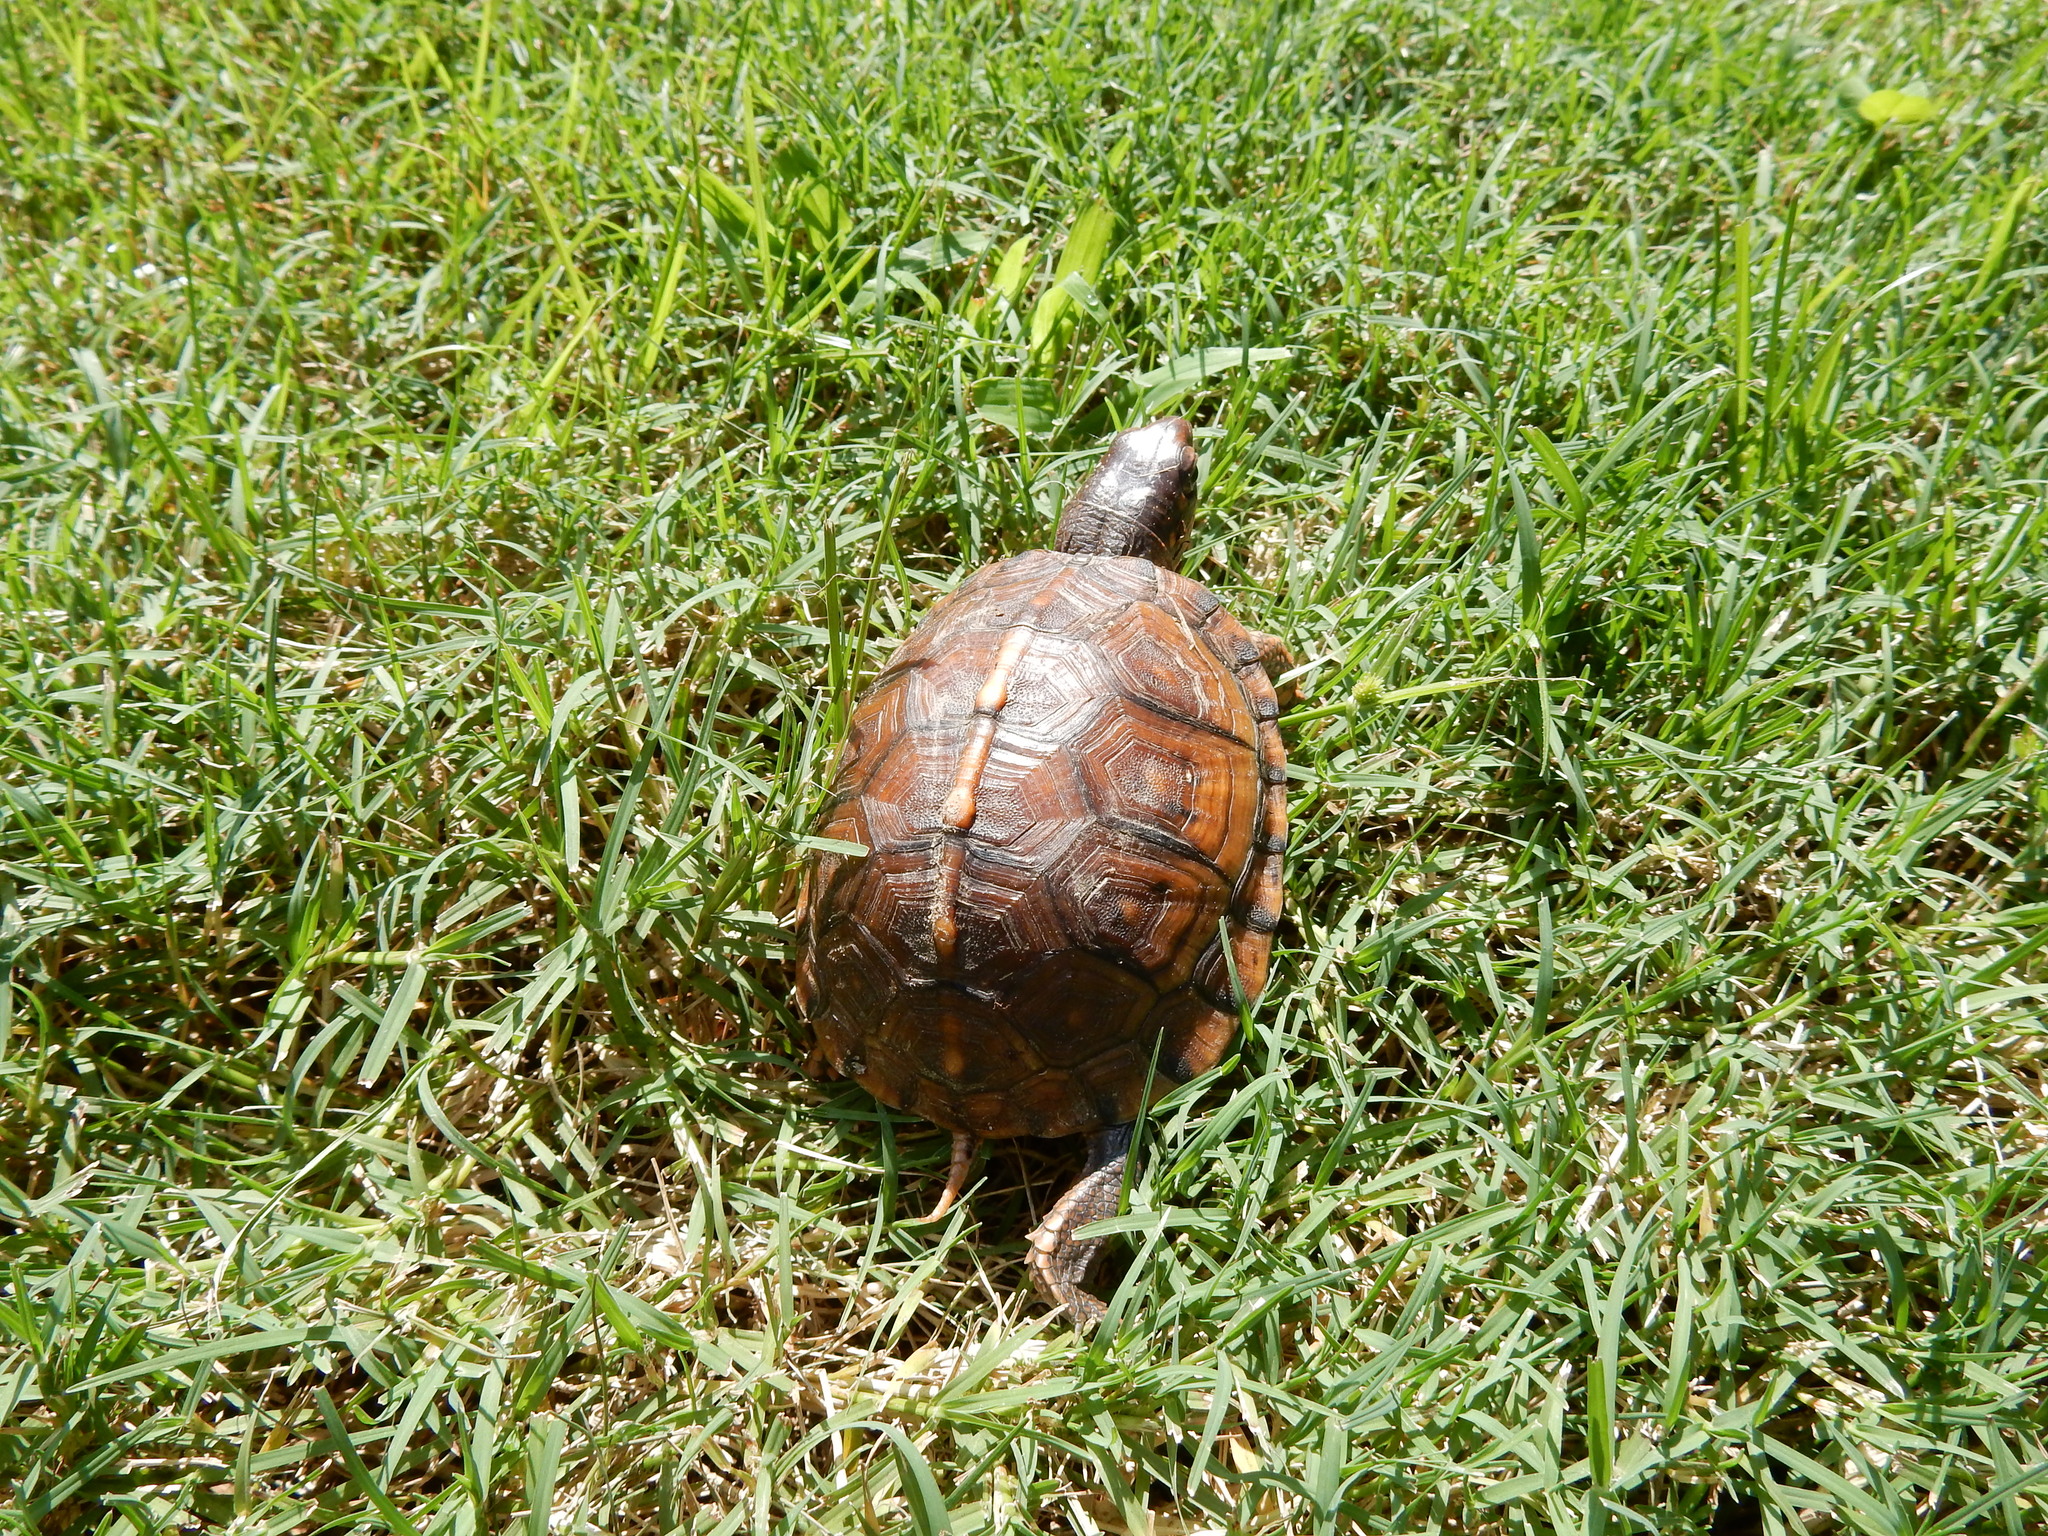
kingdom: Animalia
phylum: Chordata
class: Testudines
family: Emydidae
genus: Terrapene
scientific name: Terrapene carolina
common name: Common box turtle
